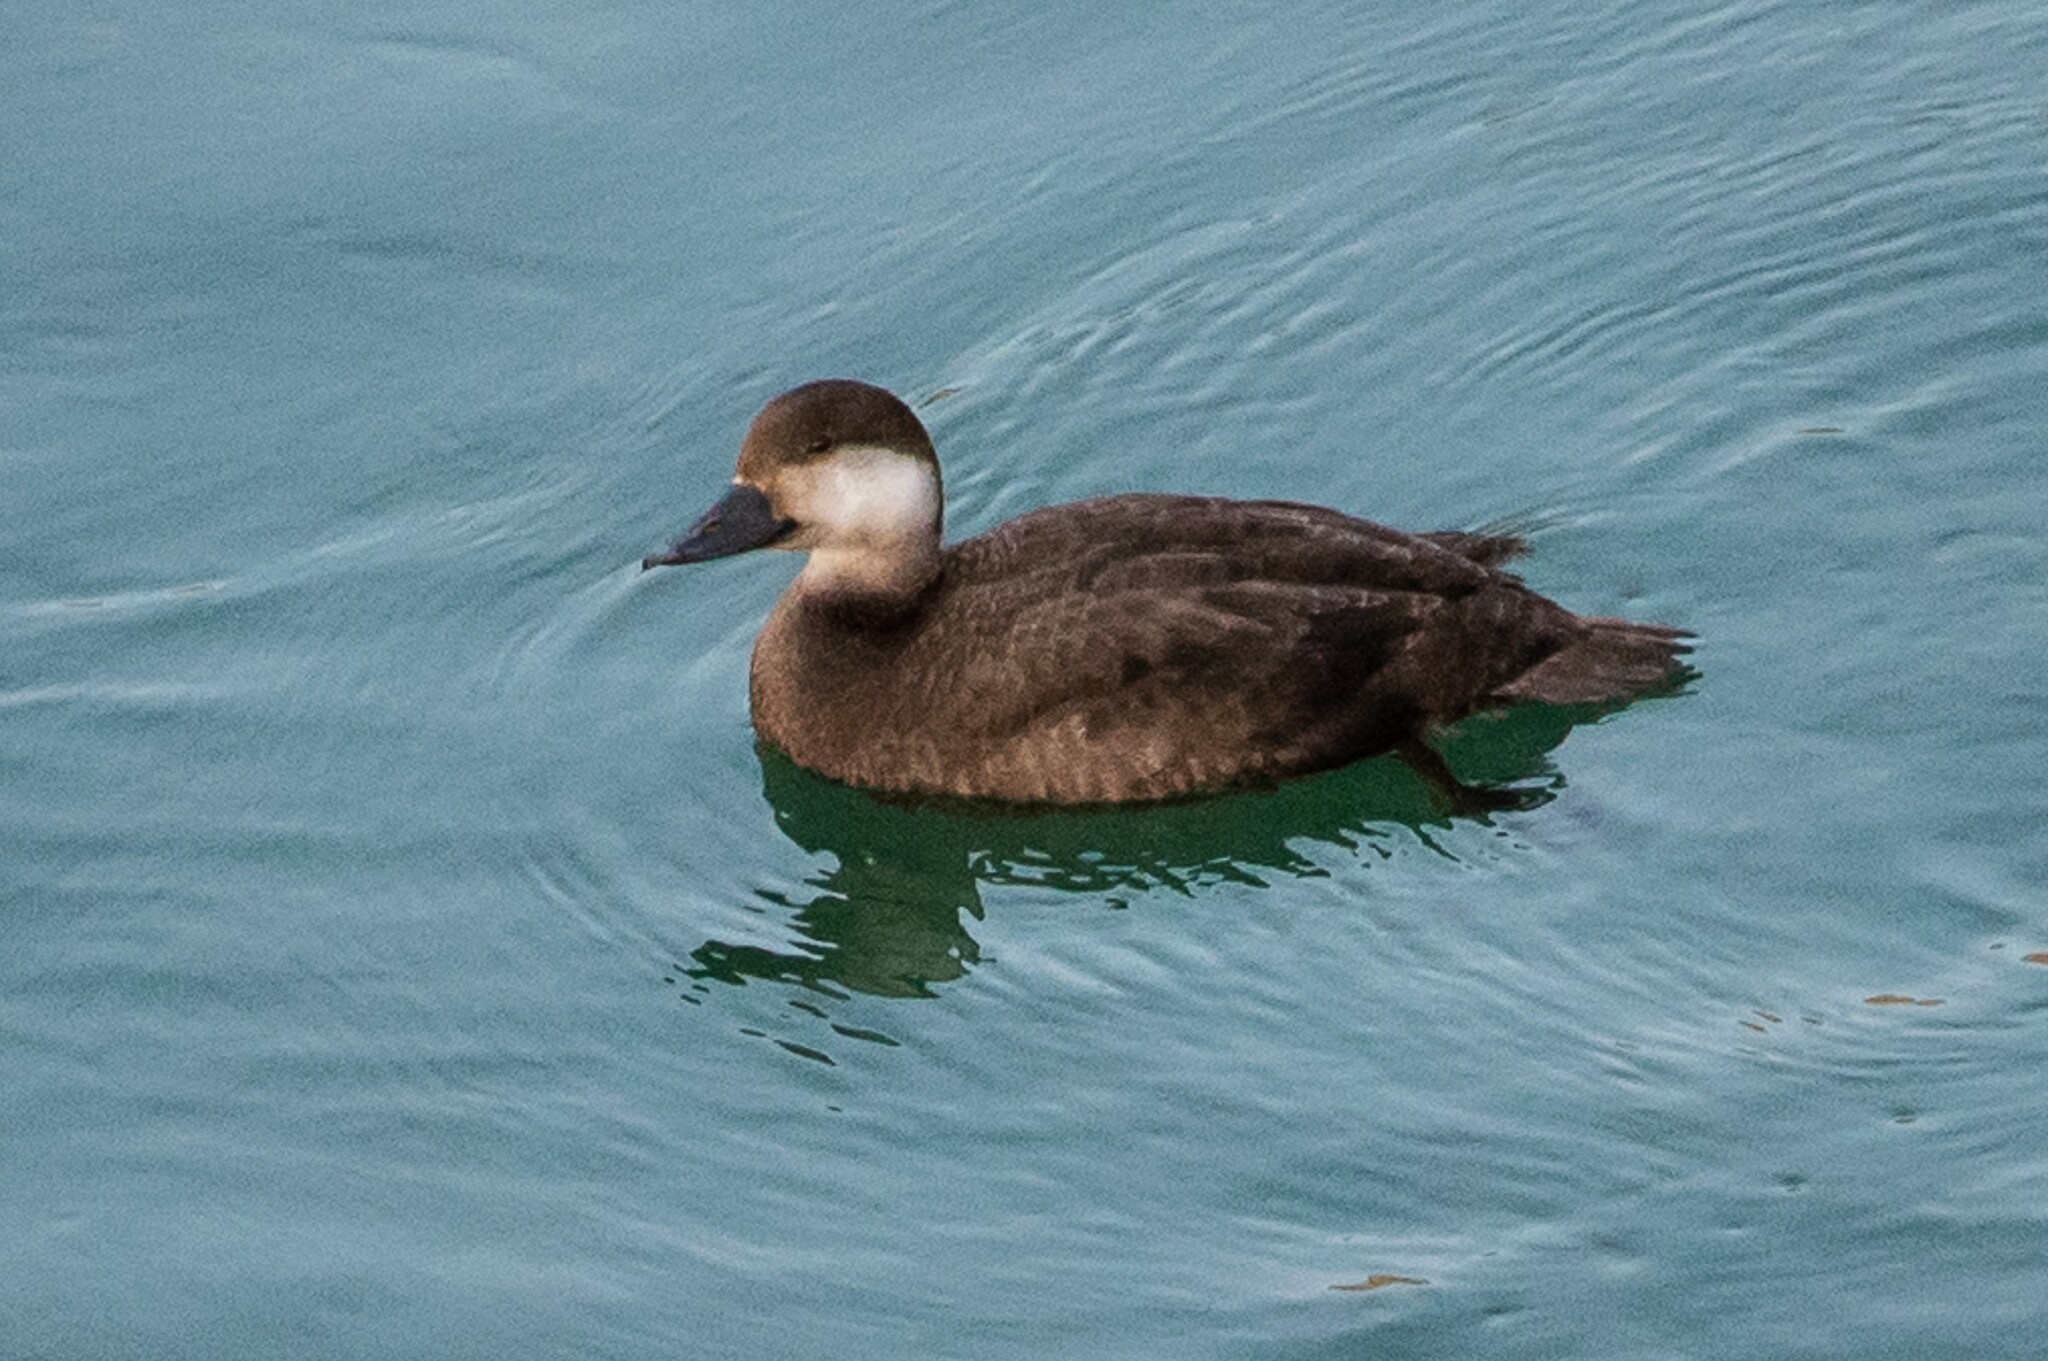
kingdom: Animalia
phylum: Chordata
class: Aves
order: Anseriformes
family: Anatidae
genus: Melanitta
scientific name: Melanitta americana
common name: Black scoter
